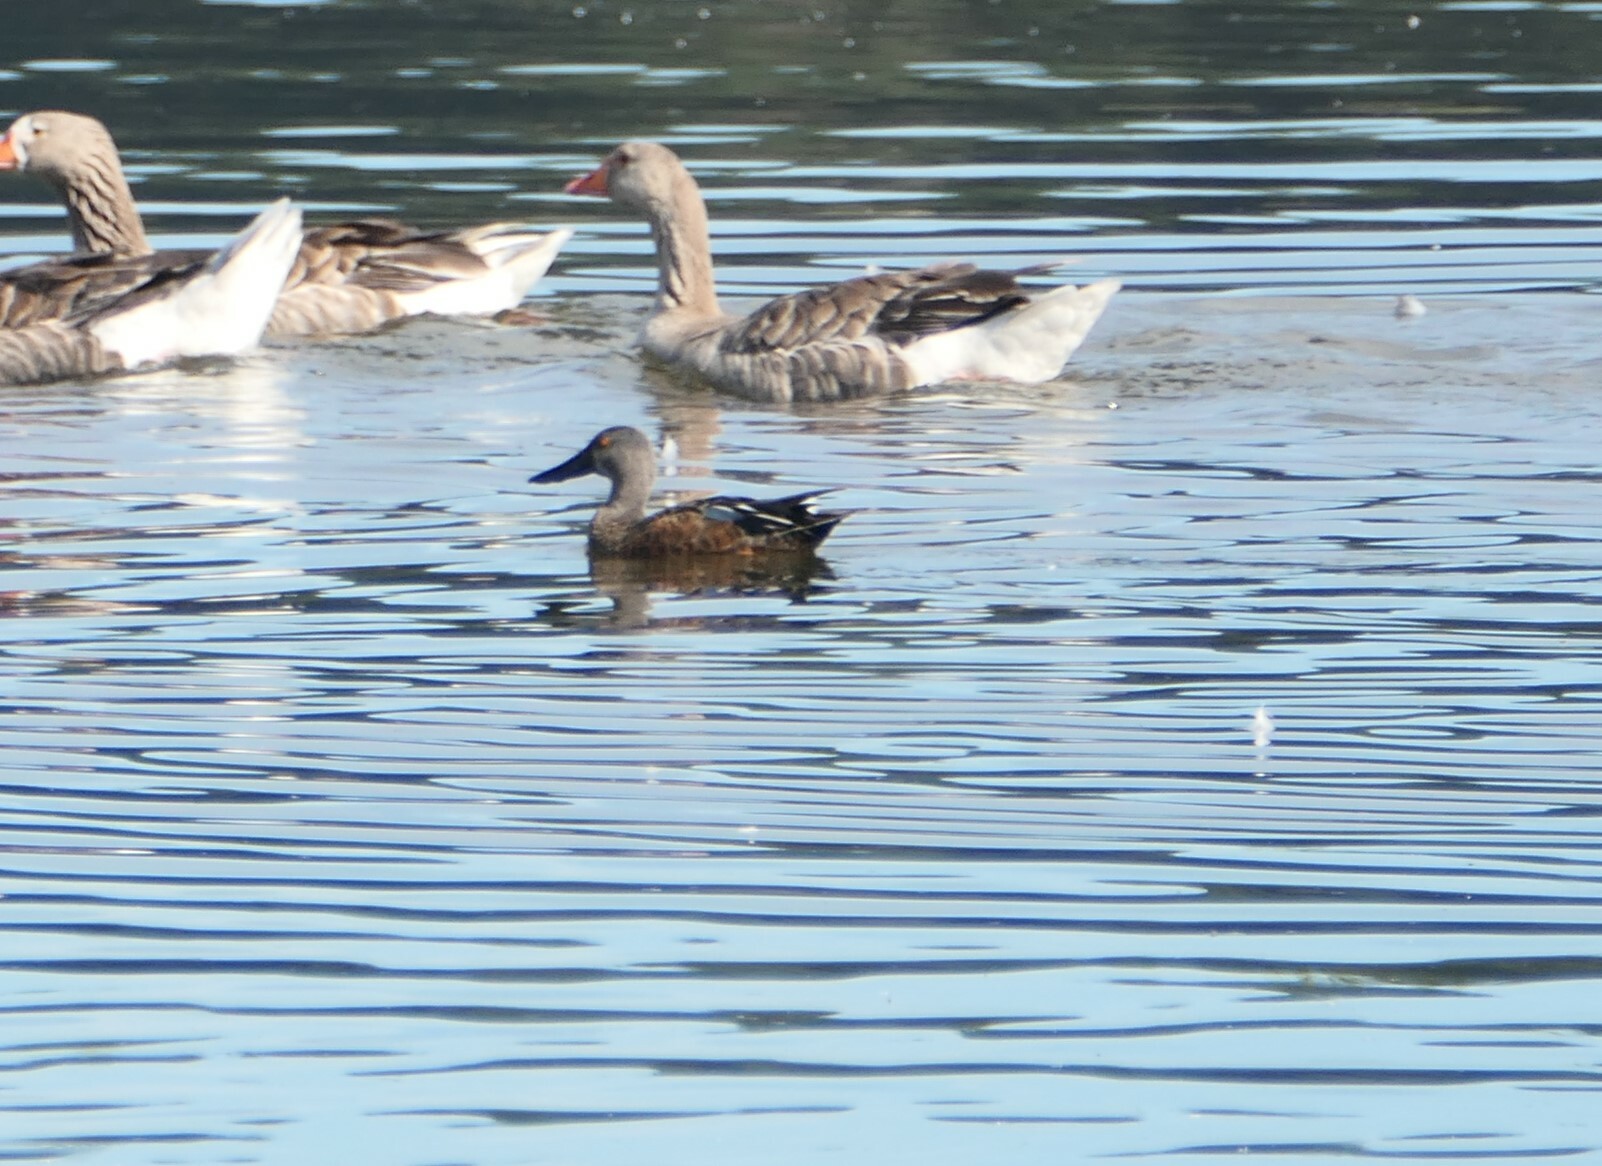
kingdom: Animalia
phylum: Chordata
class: Aves
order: Anseriformes
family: Anatidae
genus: Spatula
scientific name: Spatula rhynchotis
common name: Australian shoveler
